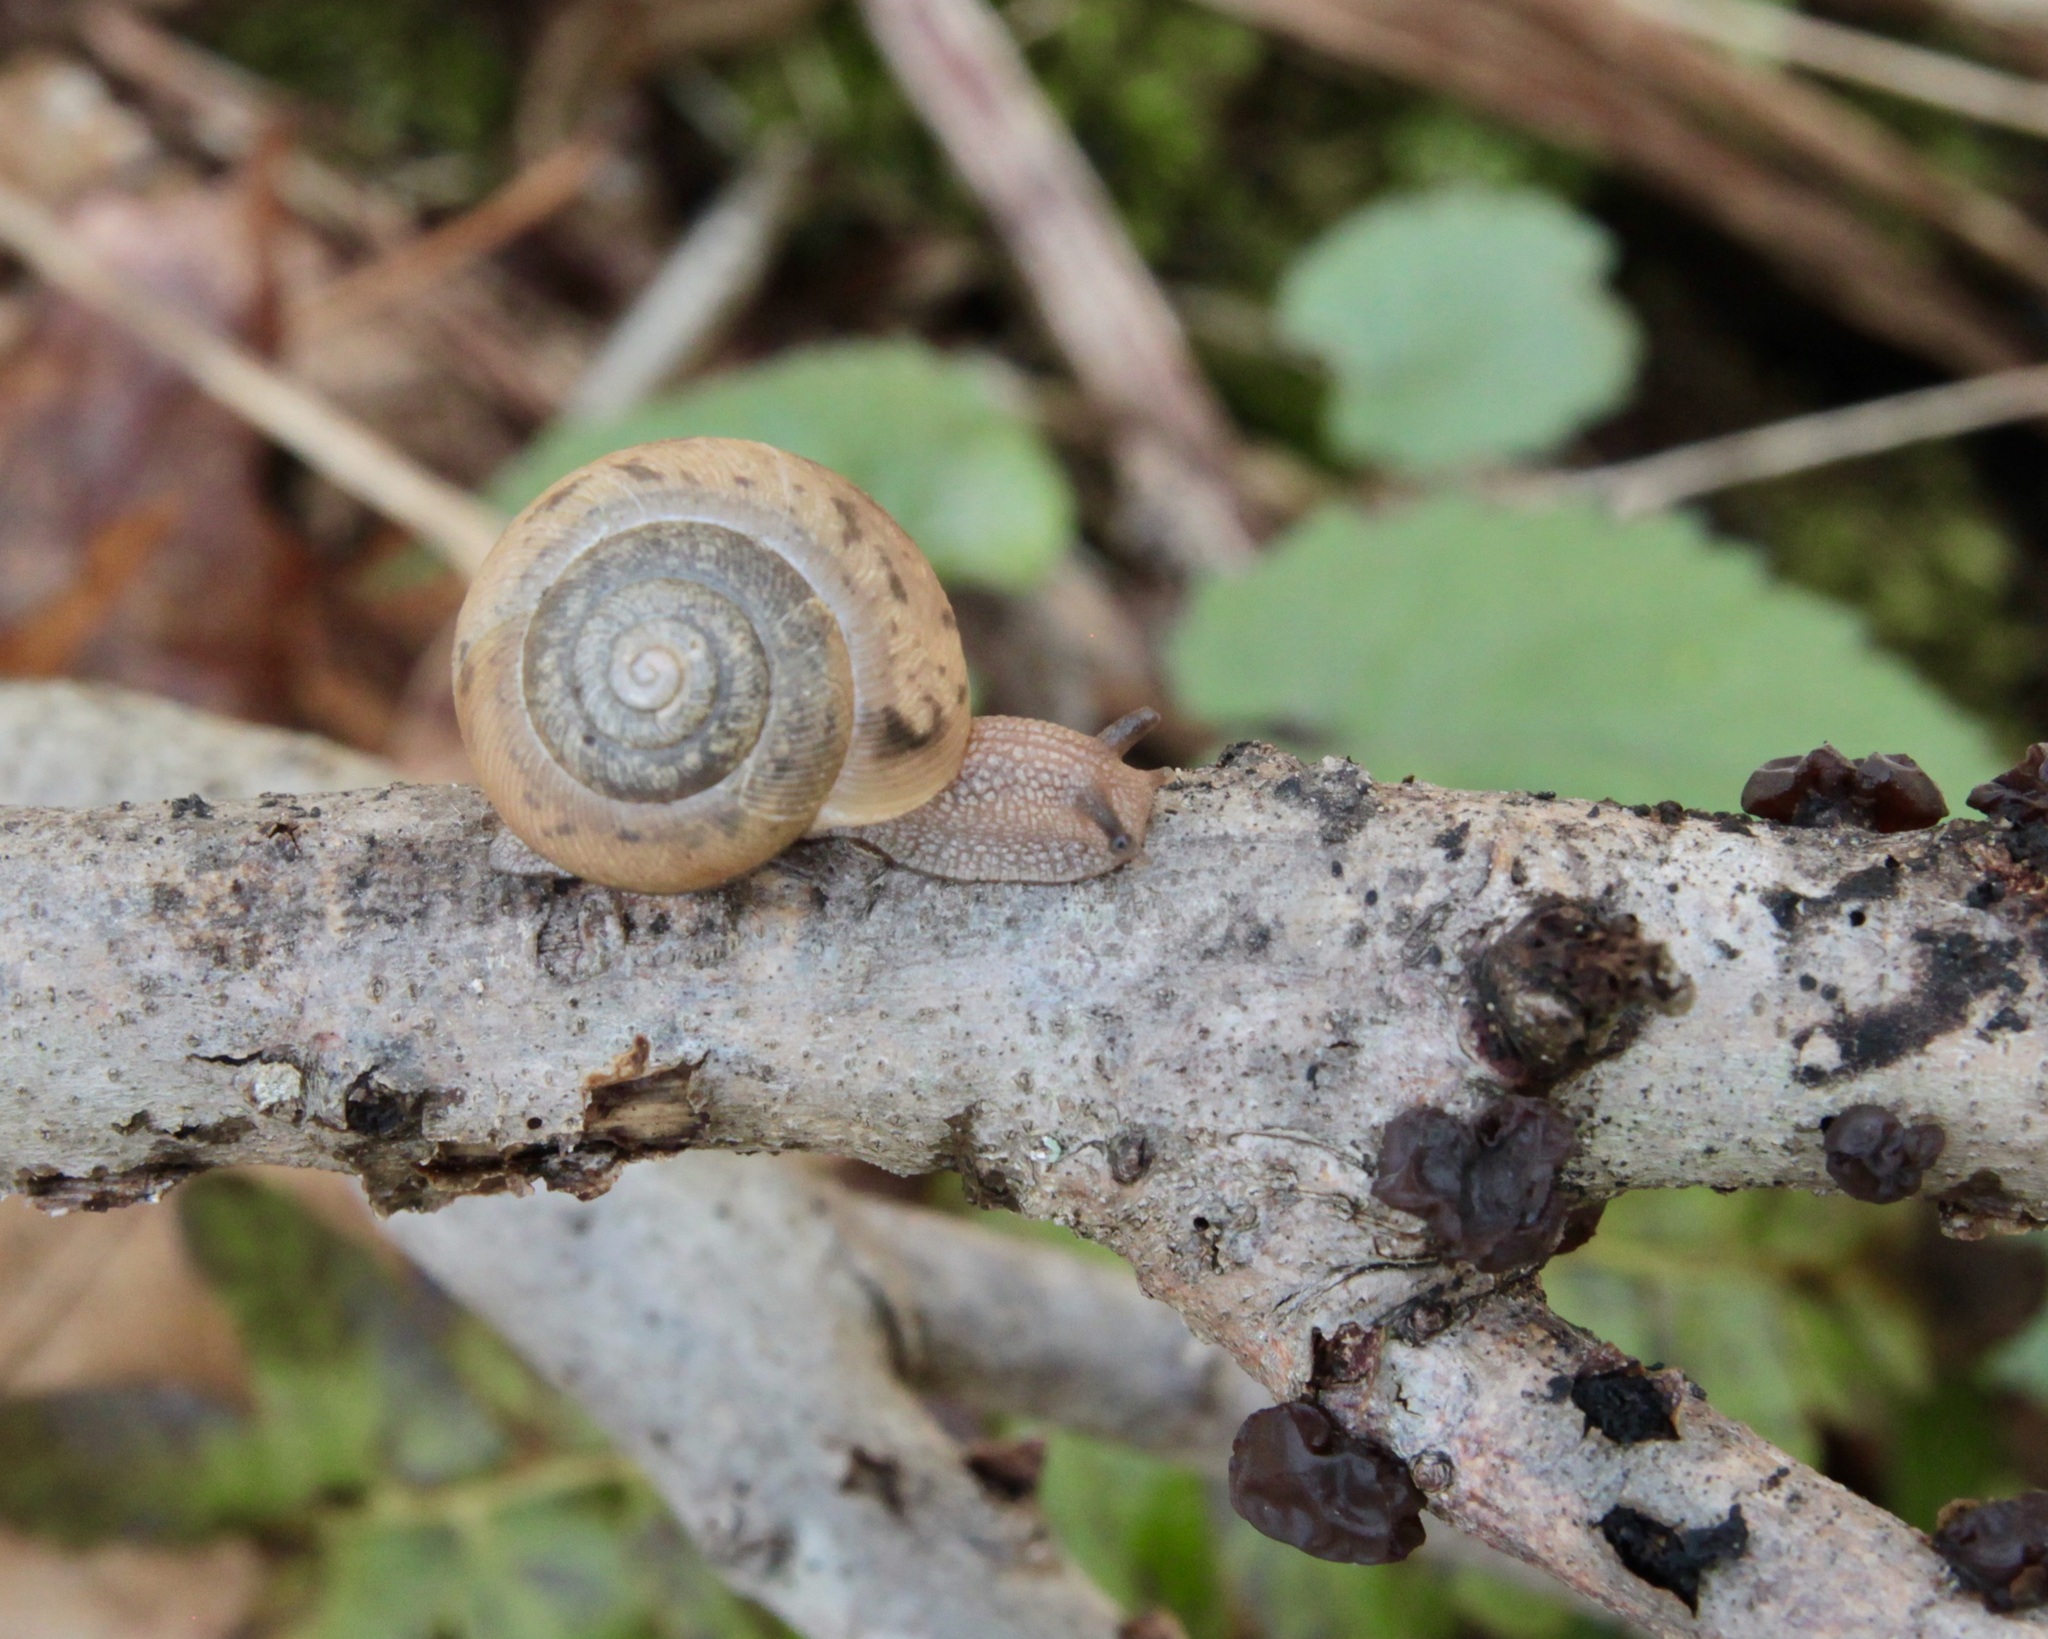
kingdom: Animalia
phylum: Mollusca
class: Gastropoda
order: Stylommatophora
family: Polygyridae
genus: Mesodon
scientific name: Mesodon thyroidus
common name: White-lip globe
